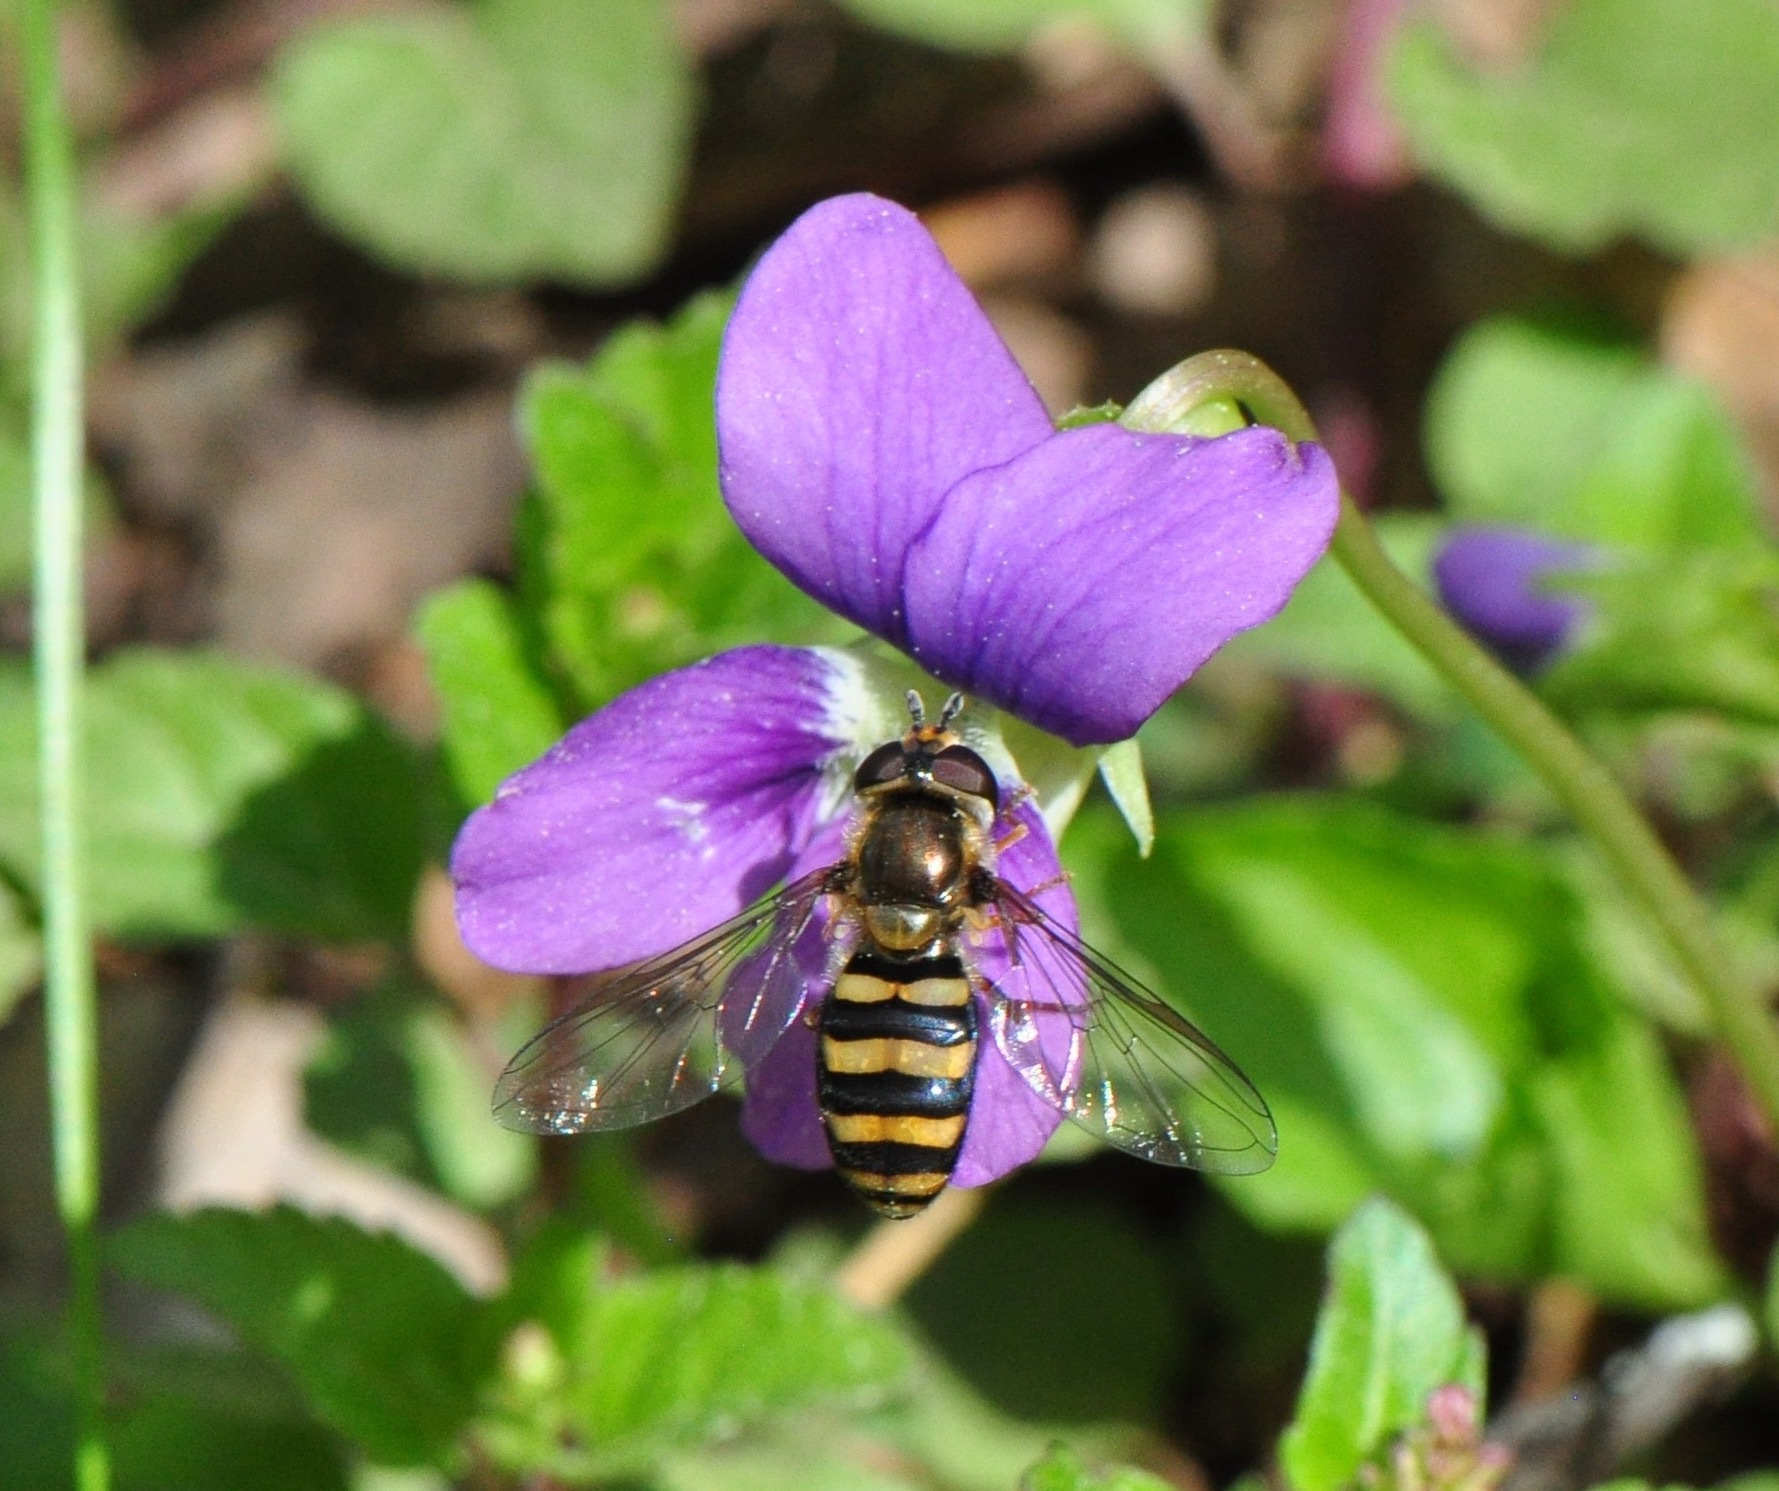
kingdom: Animalia
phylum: Arthropoda
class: Insecta
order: Diptera
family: Syrphidae
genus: Eupeodes
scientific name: Eupeodes
